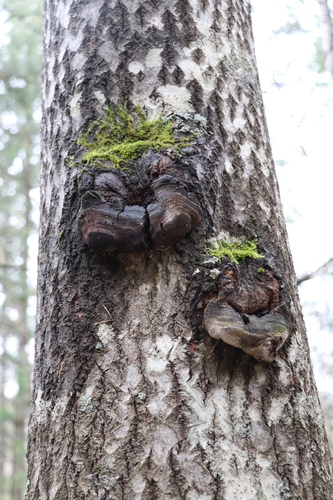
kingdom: Fungi
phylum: Basidiomycota
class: Agaricomycetes
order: Hymenochaetales
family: Hymenochaetaceae
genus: Phellinus
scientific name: Phellinus tremulae
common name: Aspen bracket
